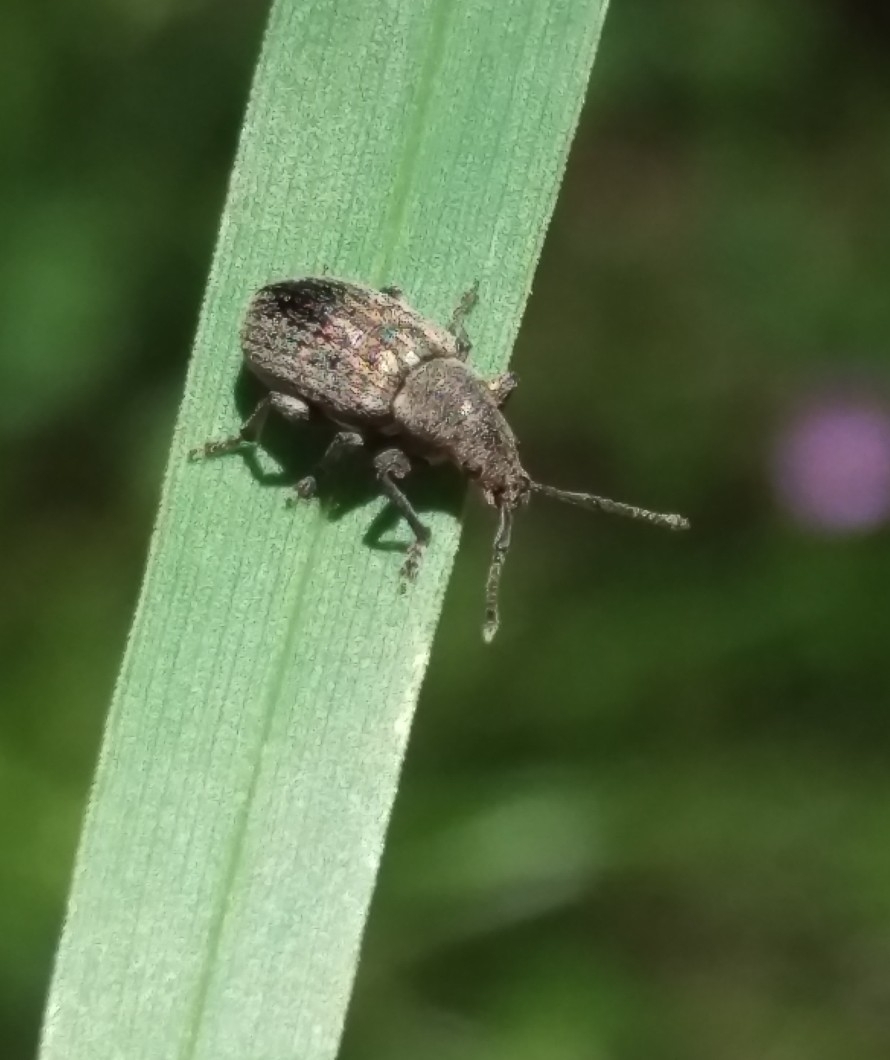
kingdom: Animalia
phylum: Arthropoda
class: Insecta
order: Coleoptera
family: Curculionidae
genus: Phyllobius
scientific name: Phyllobius pyri
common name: Common leaf weevil
